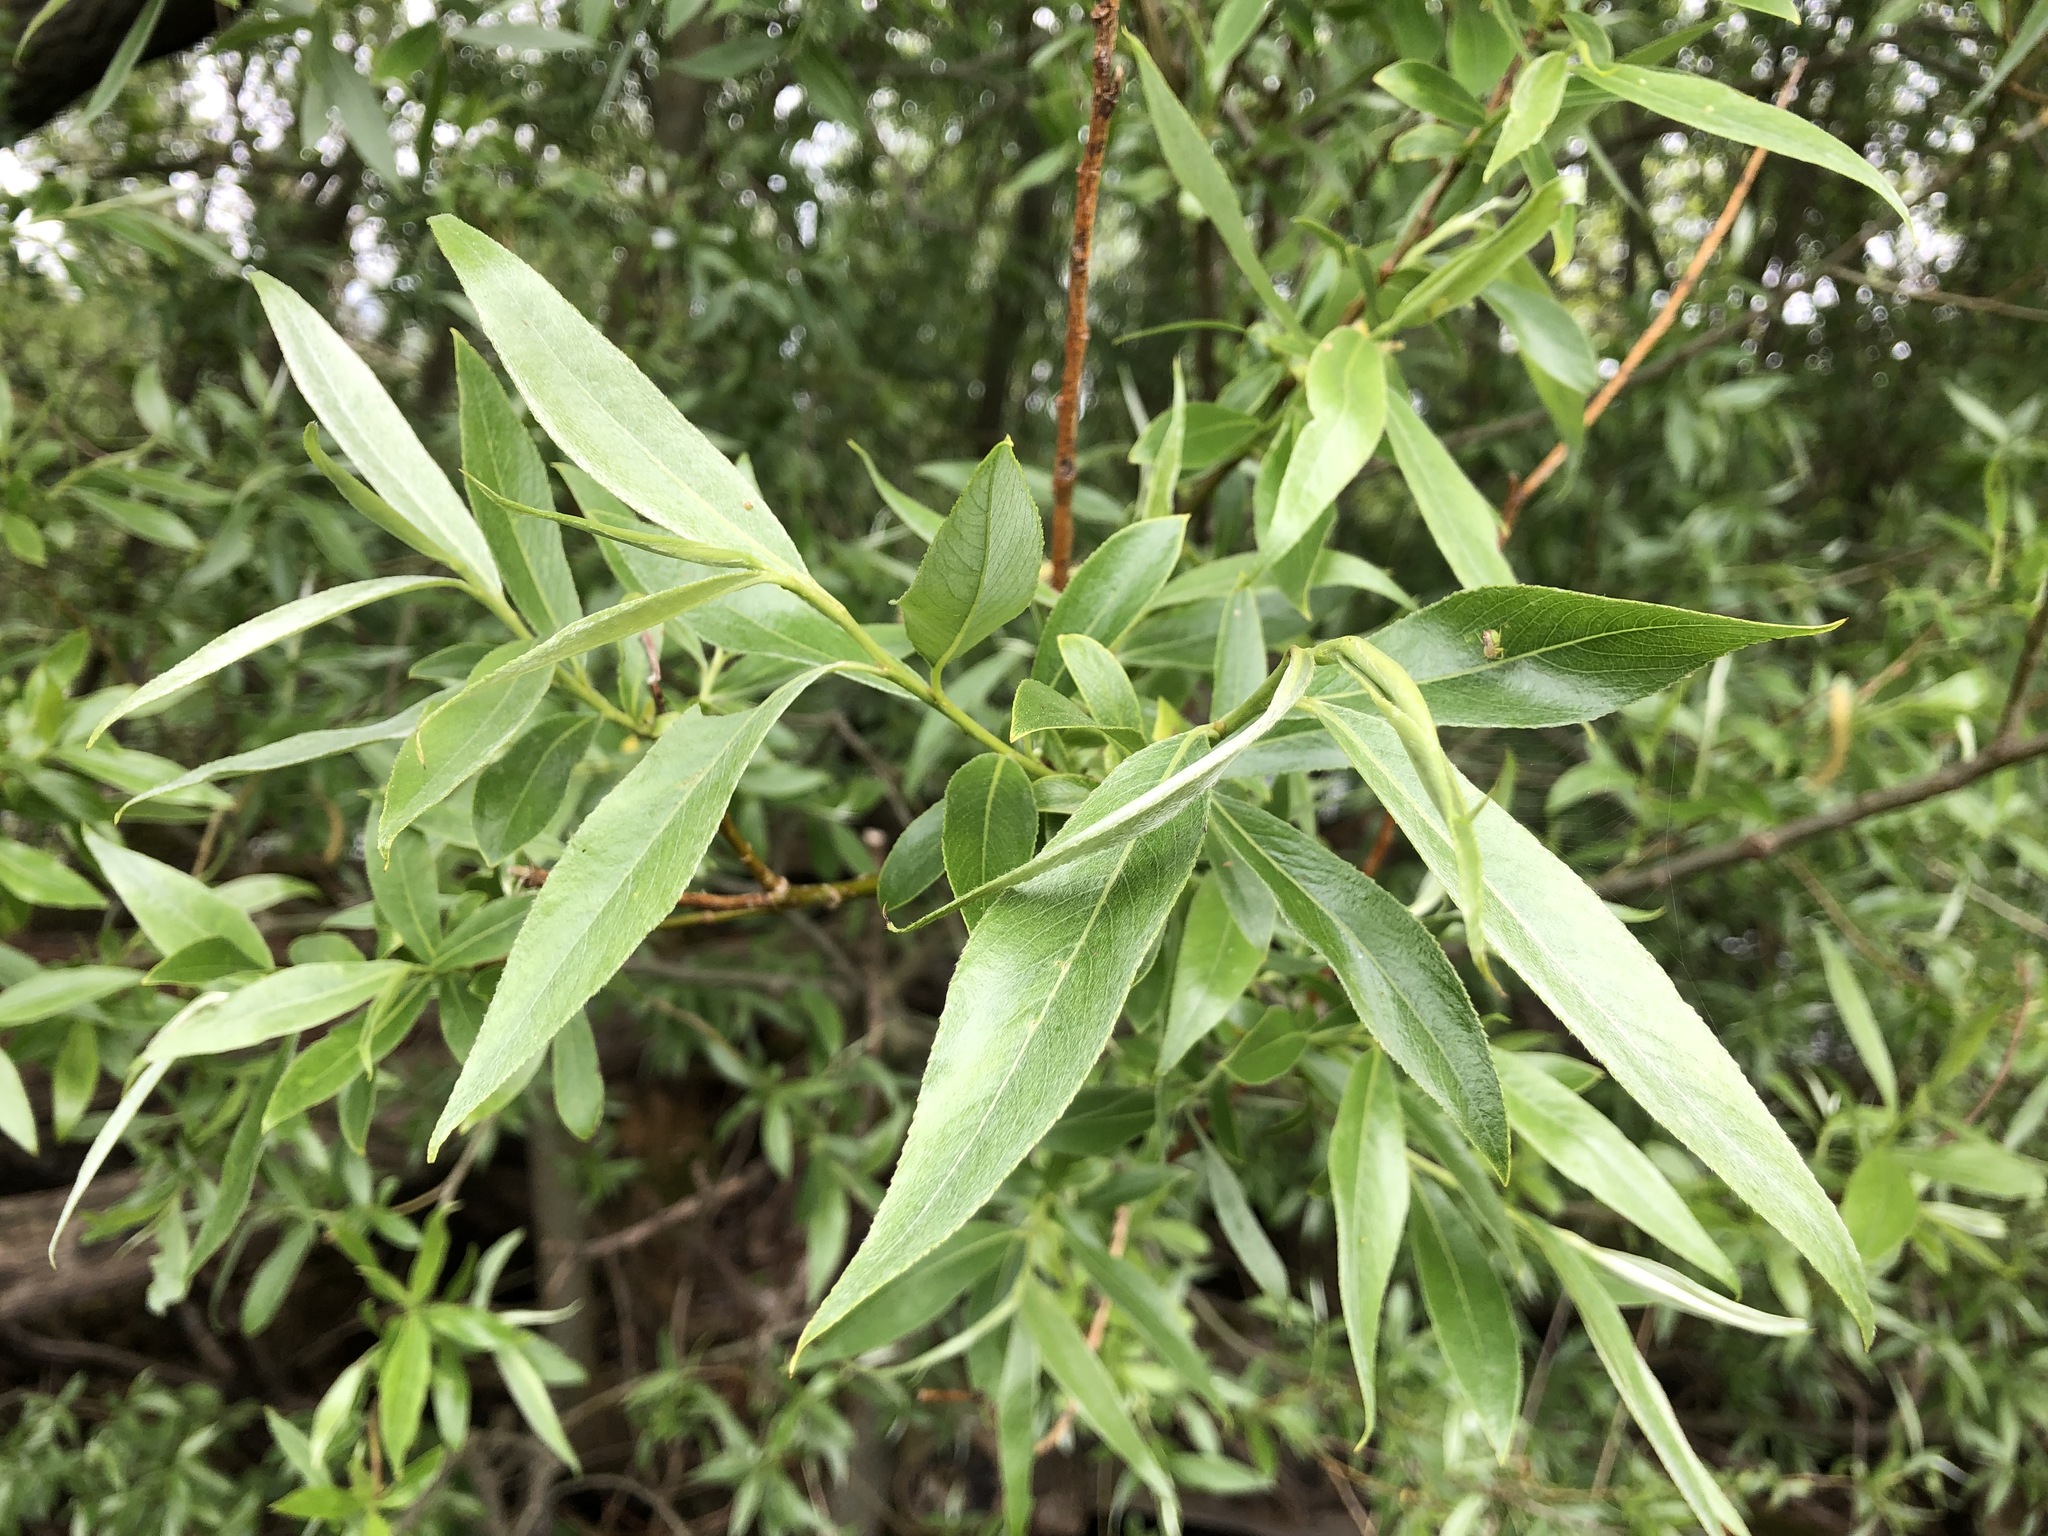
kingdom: Plantae
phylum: Tracheophyta
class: Magnoliopsida
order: Malpighiales
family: Salicaceae
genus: Salix
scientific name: Salix alba
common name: White willow
